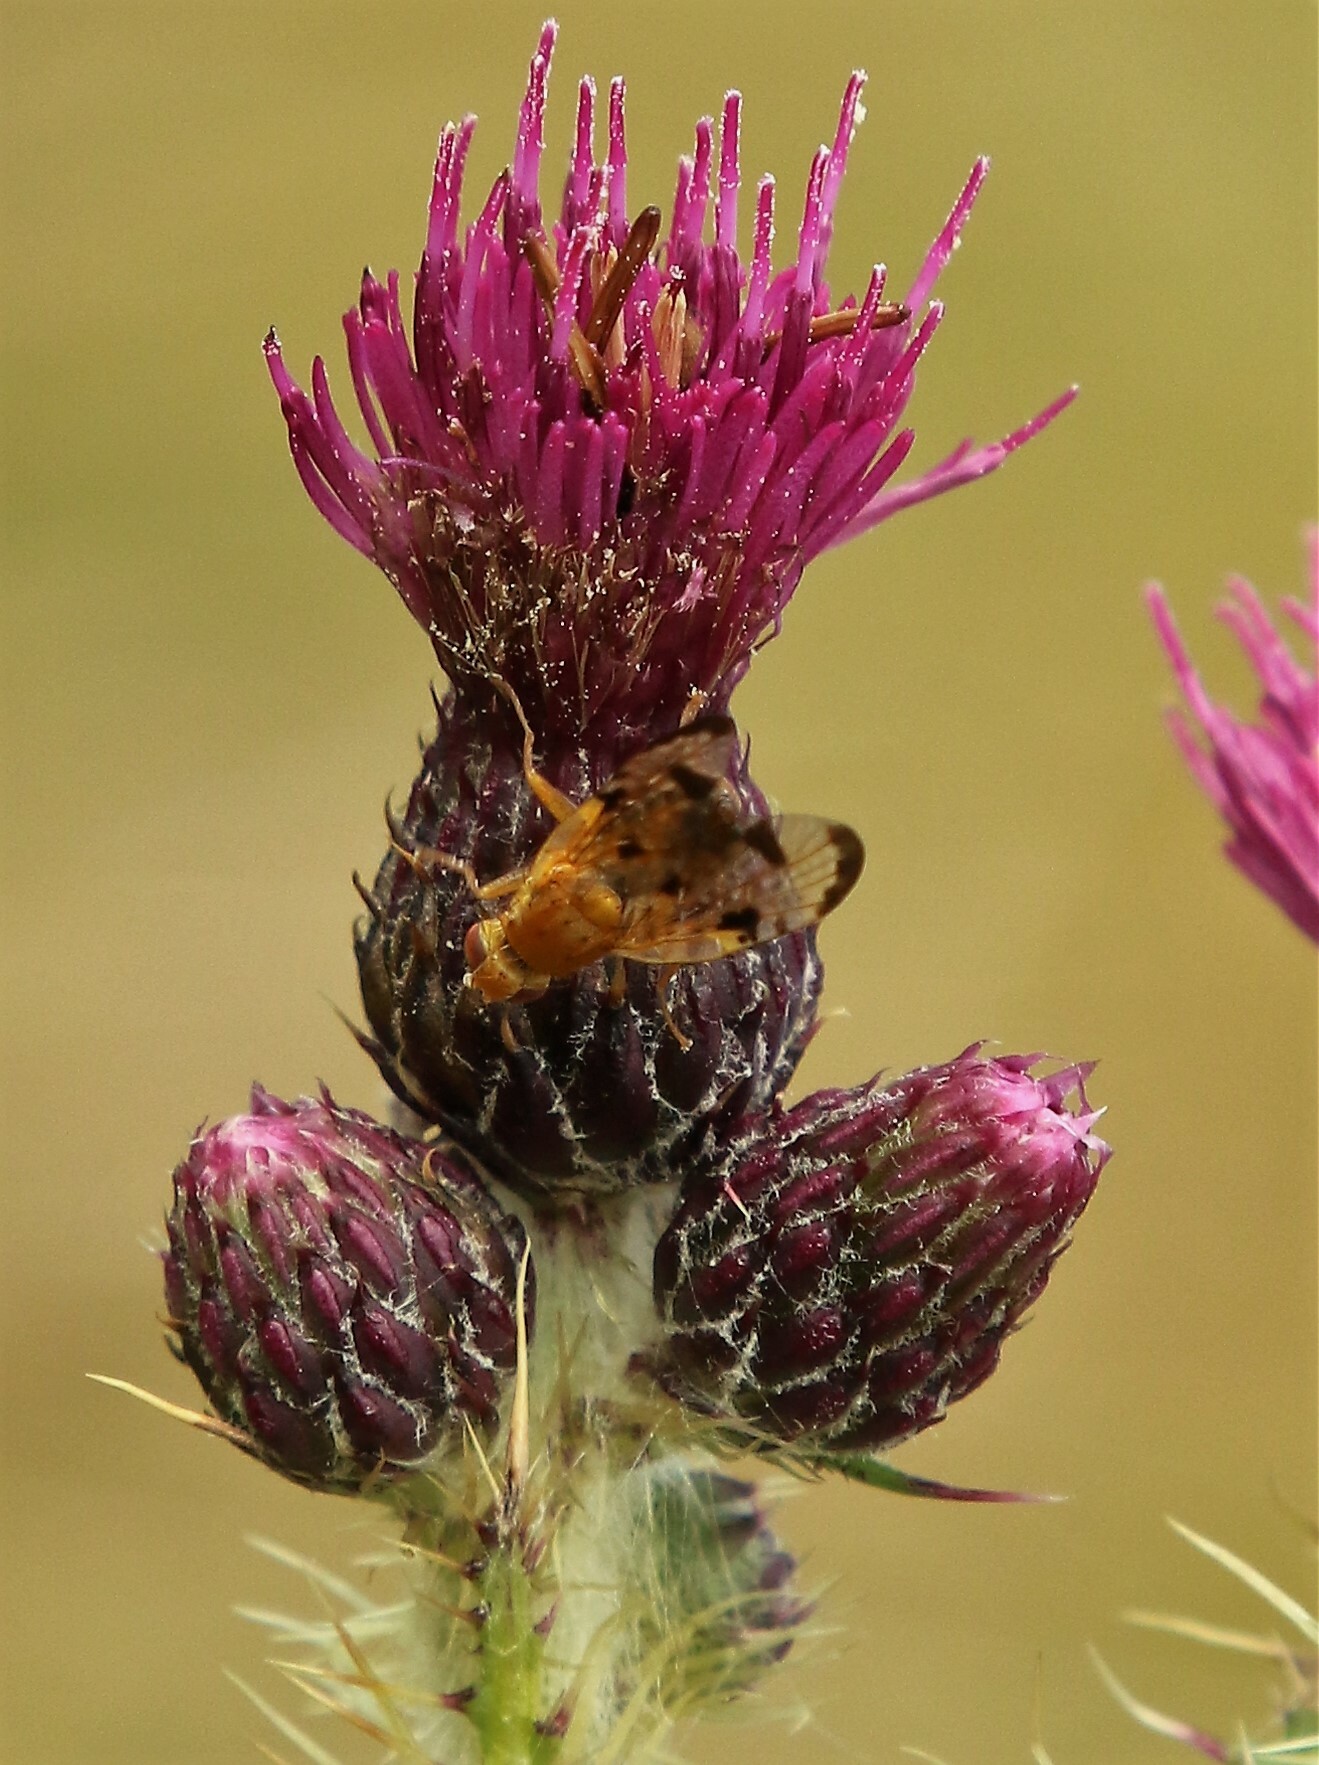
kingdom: Animalia
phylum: Arthropoda
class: Insecta
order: Diptera
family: Tephritidae
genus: Xyphosia
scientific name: Xyphosia miliaria
